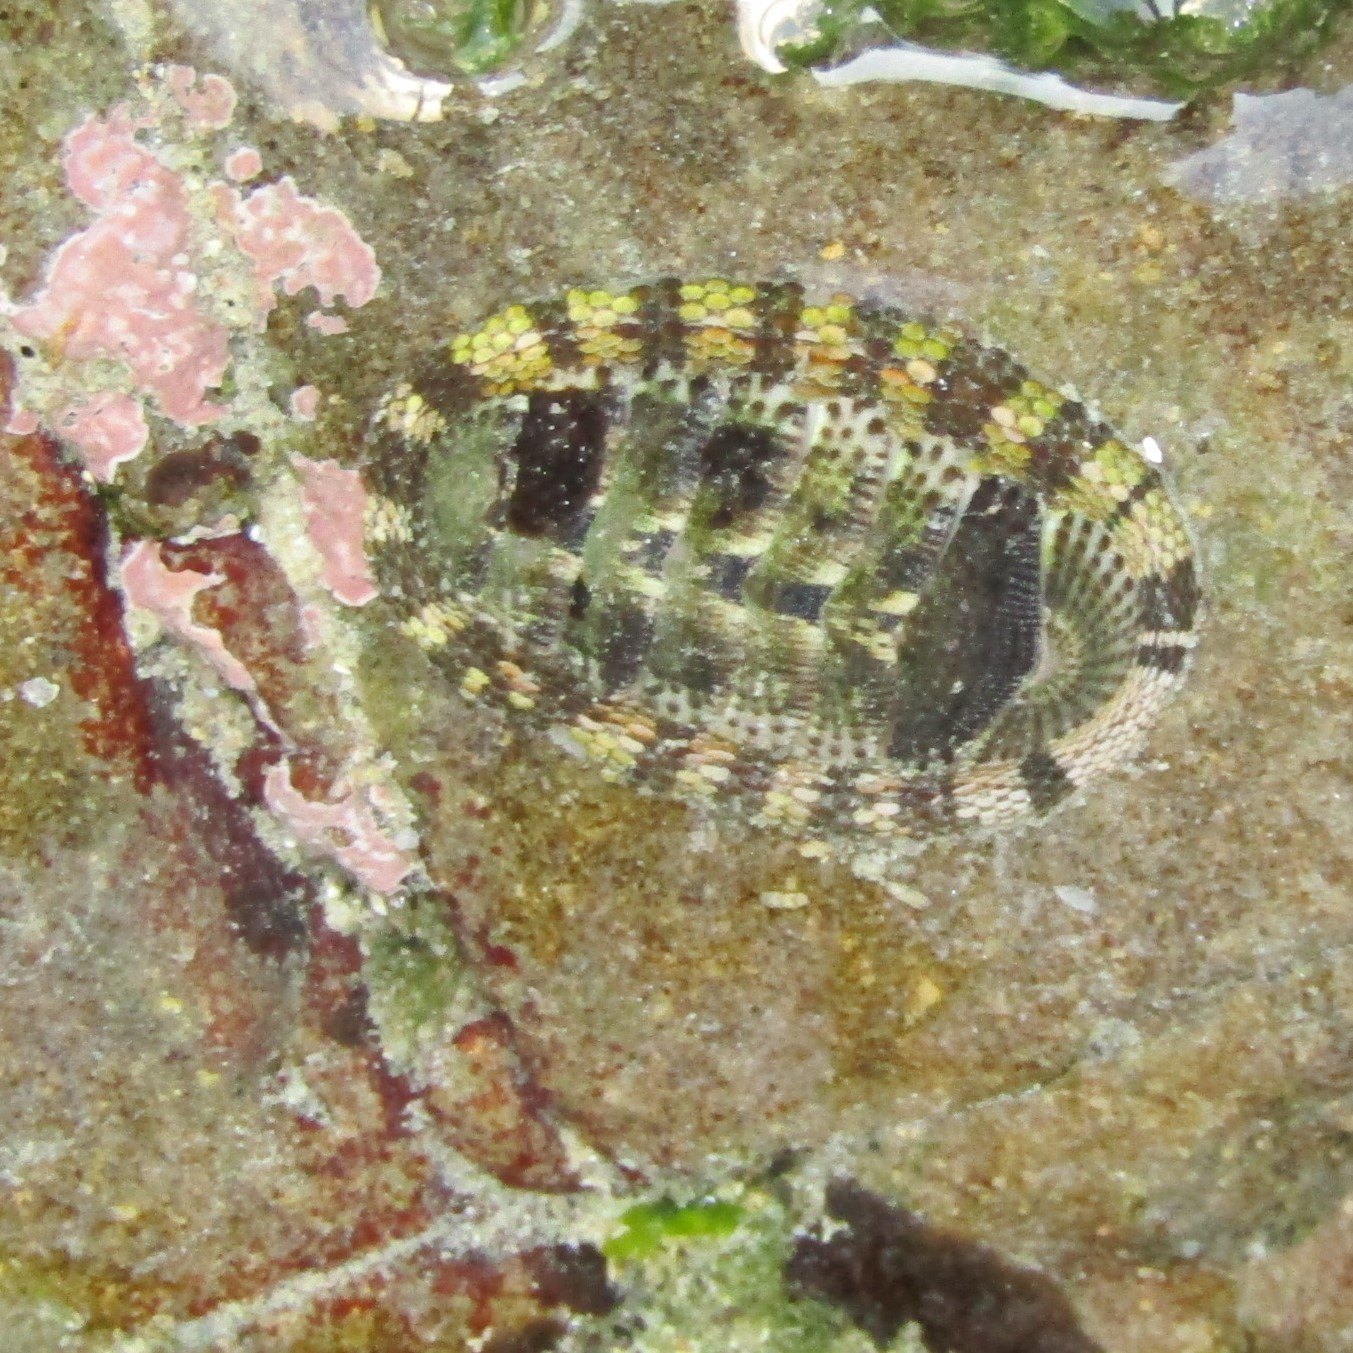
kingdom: Animalia
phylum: Mollusca
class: Polyplacophora
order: Chitonida
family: Chitonidae
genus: Sypharochiton
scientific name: Sypharochiton pelliserpentis
